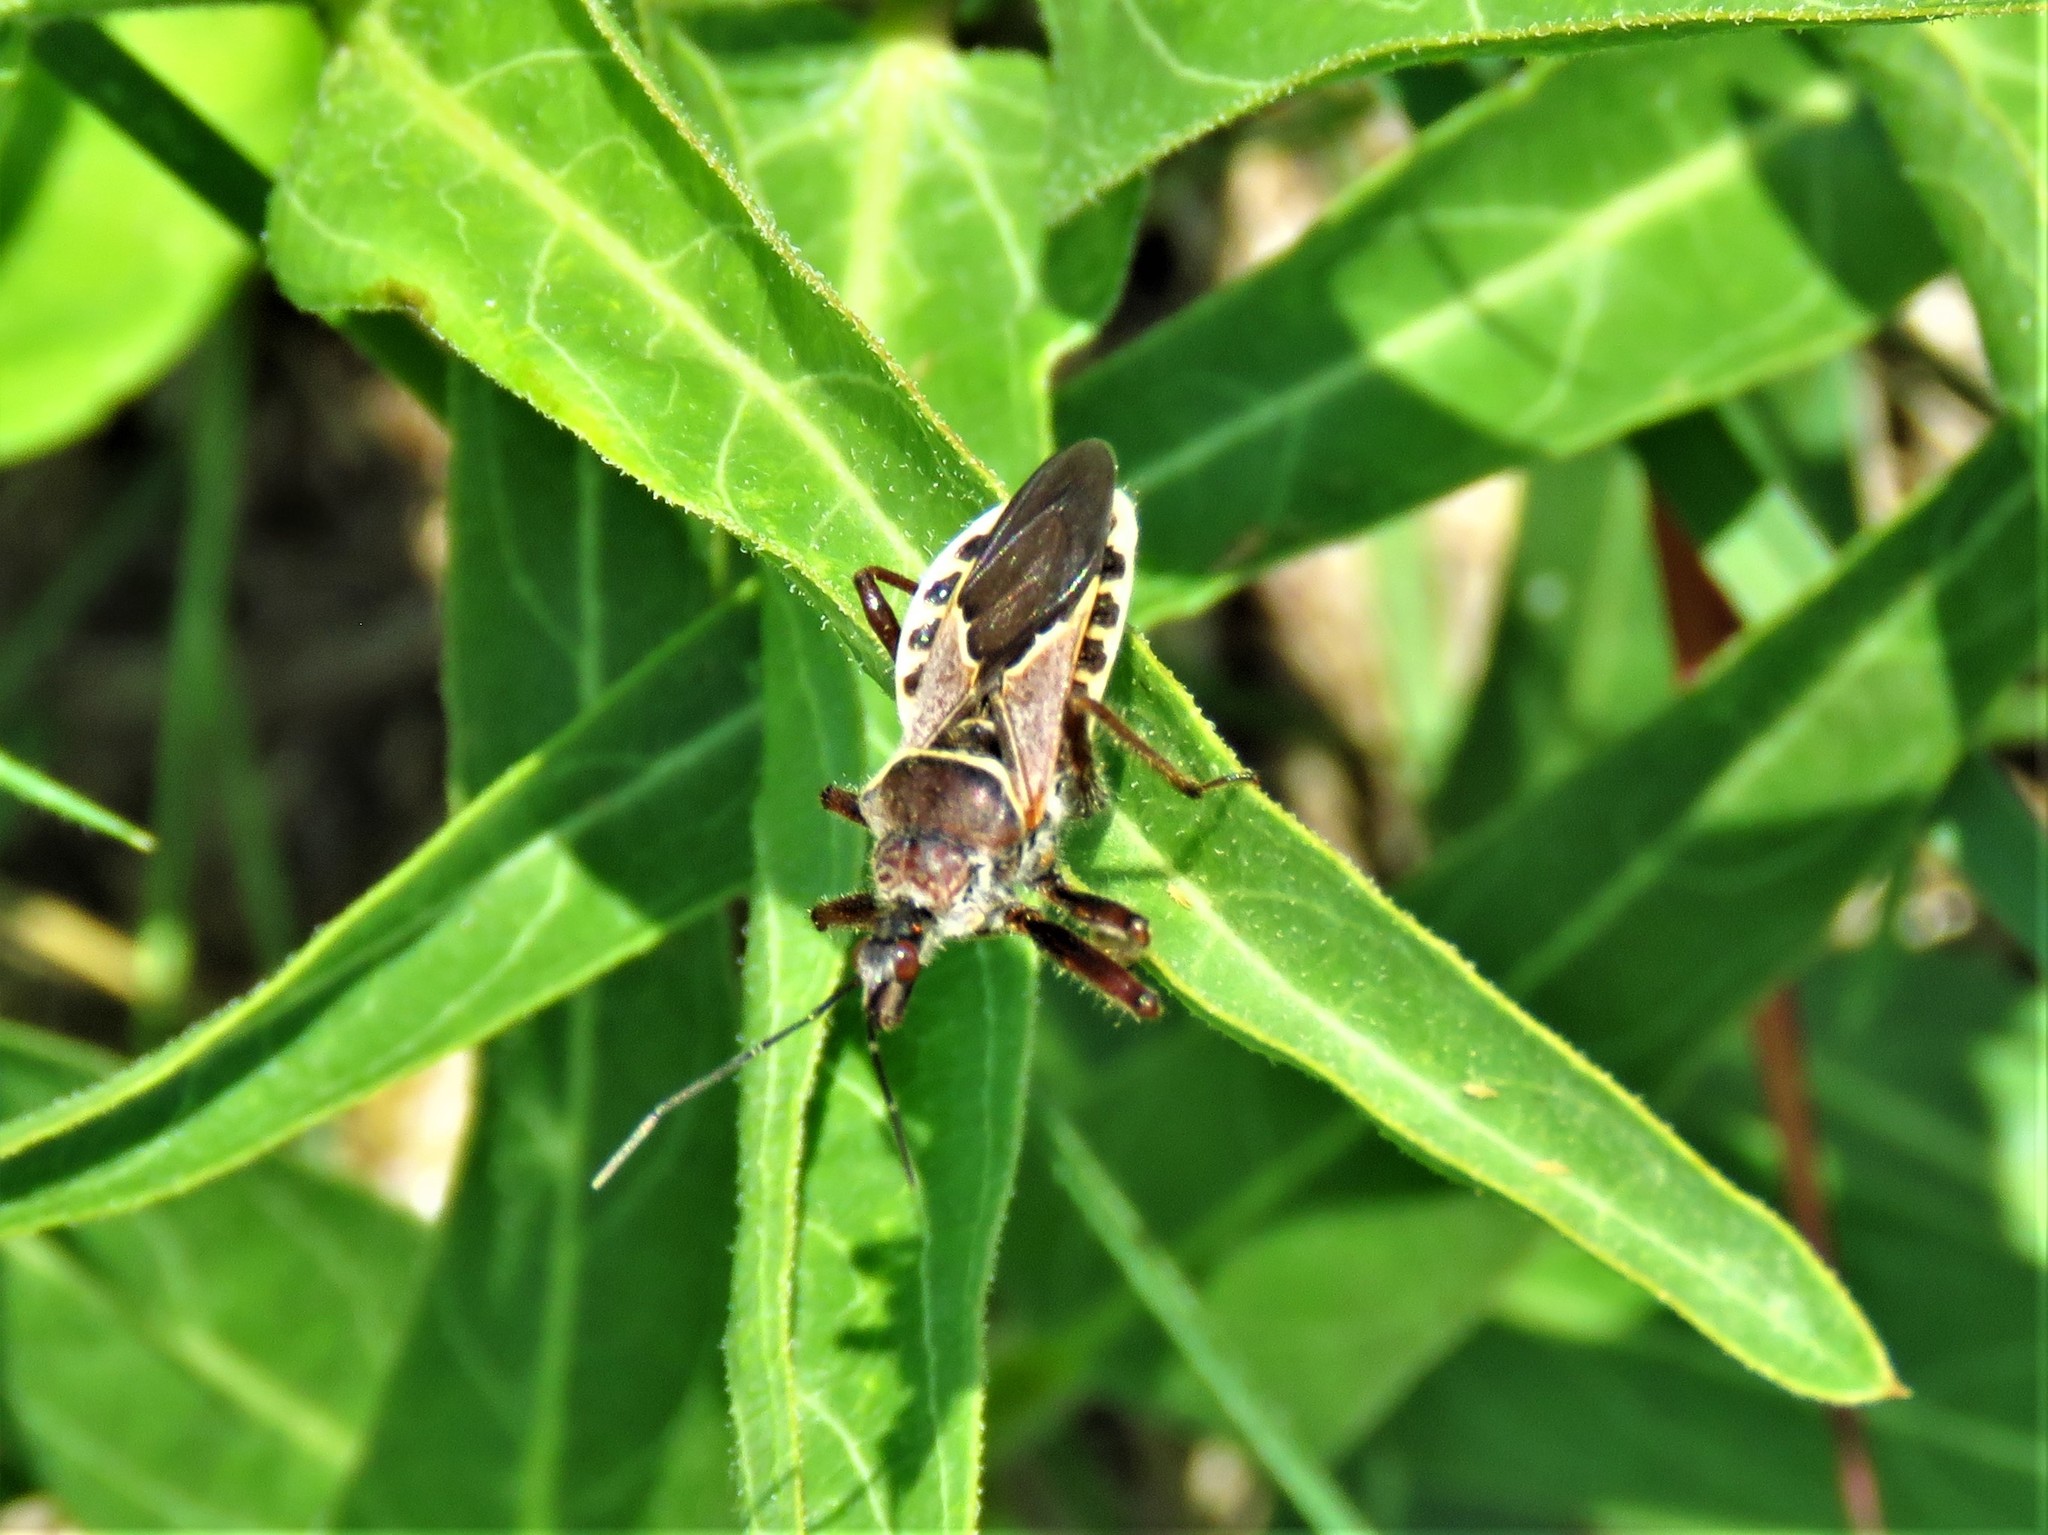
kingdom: Animalia
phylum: Arthropoda
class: Insecta
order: Hemiptera
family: Reduviidae
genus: Apiomerus
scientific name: Apiomerus spissipes
